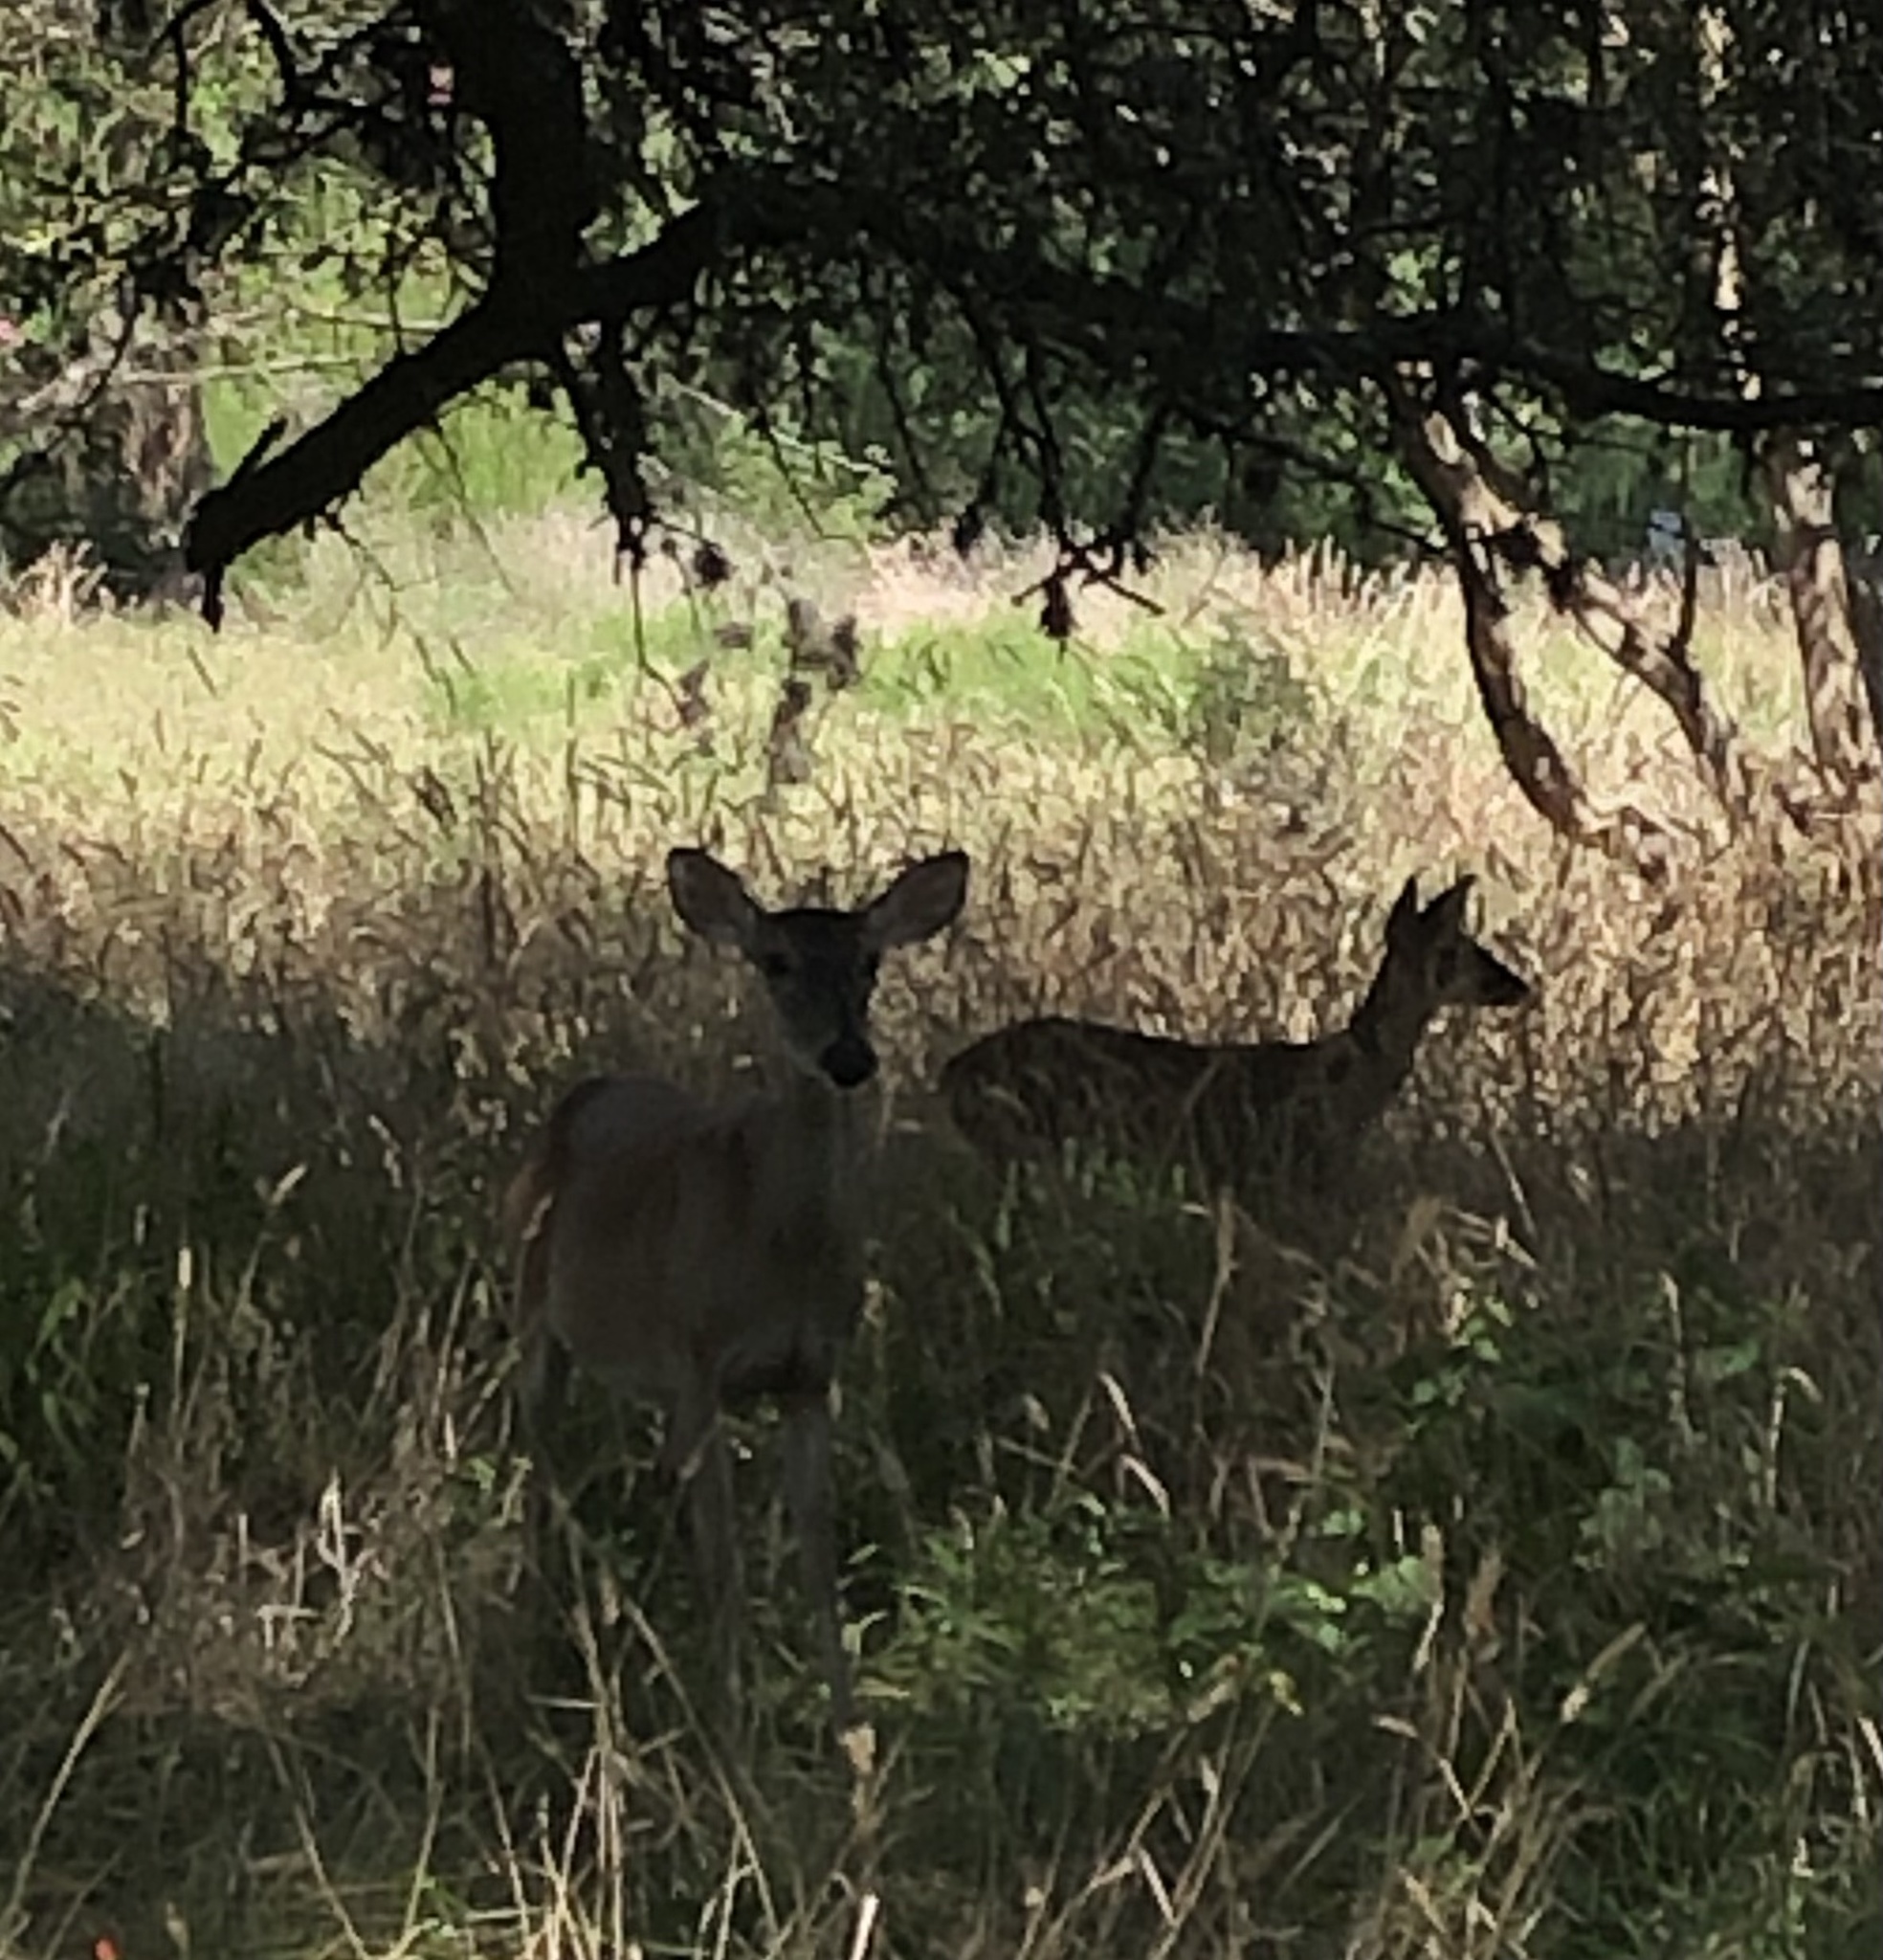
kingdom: Animalia
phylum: Chordata
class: Mammalia
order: Artiodactyla
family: Cervidae
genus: Odocoileus
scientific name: Odocoileus virginianus
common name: White-tailed deer
